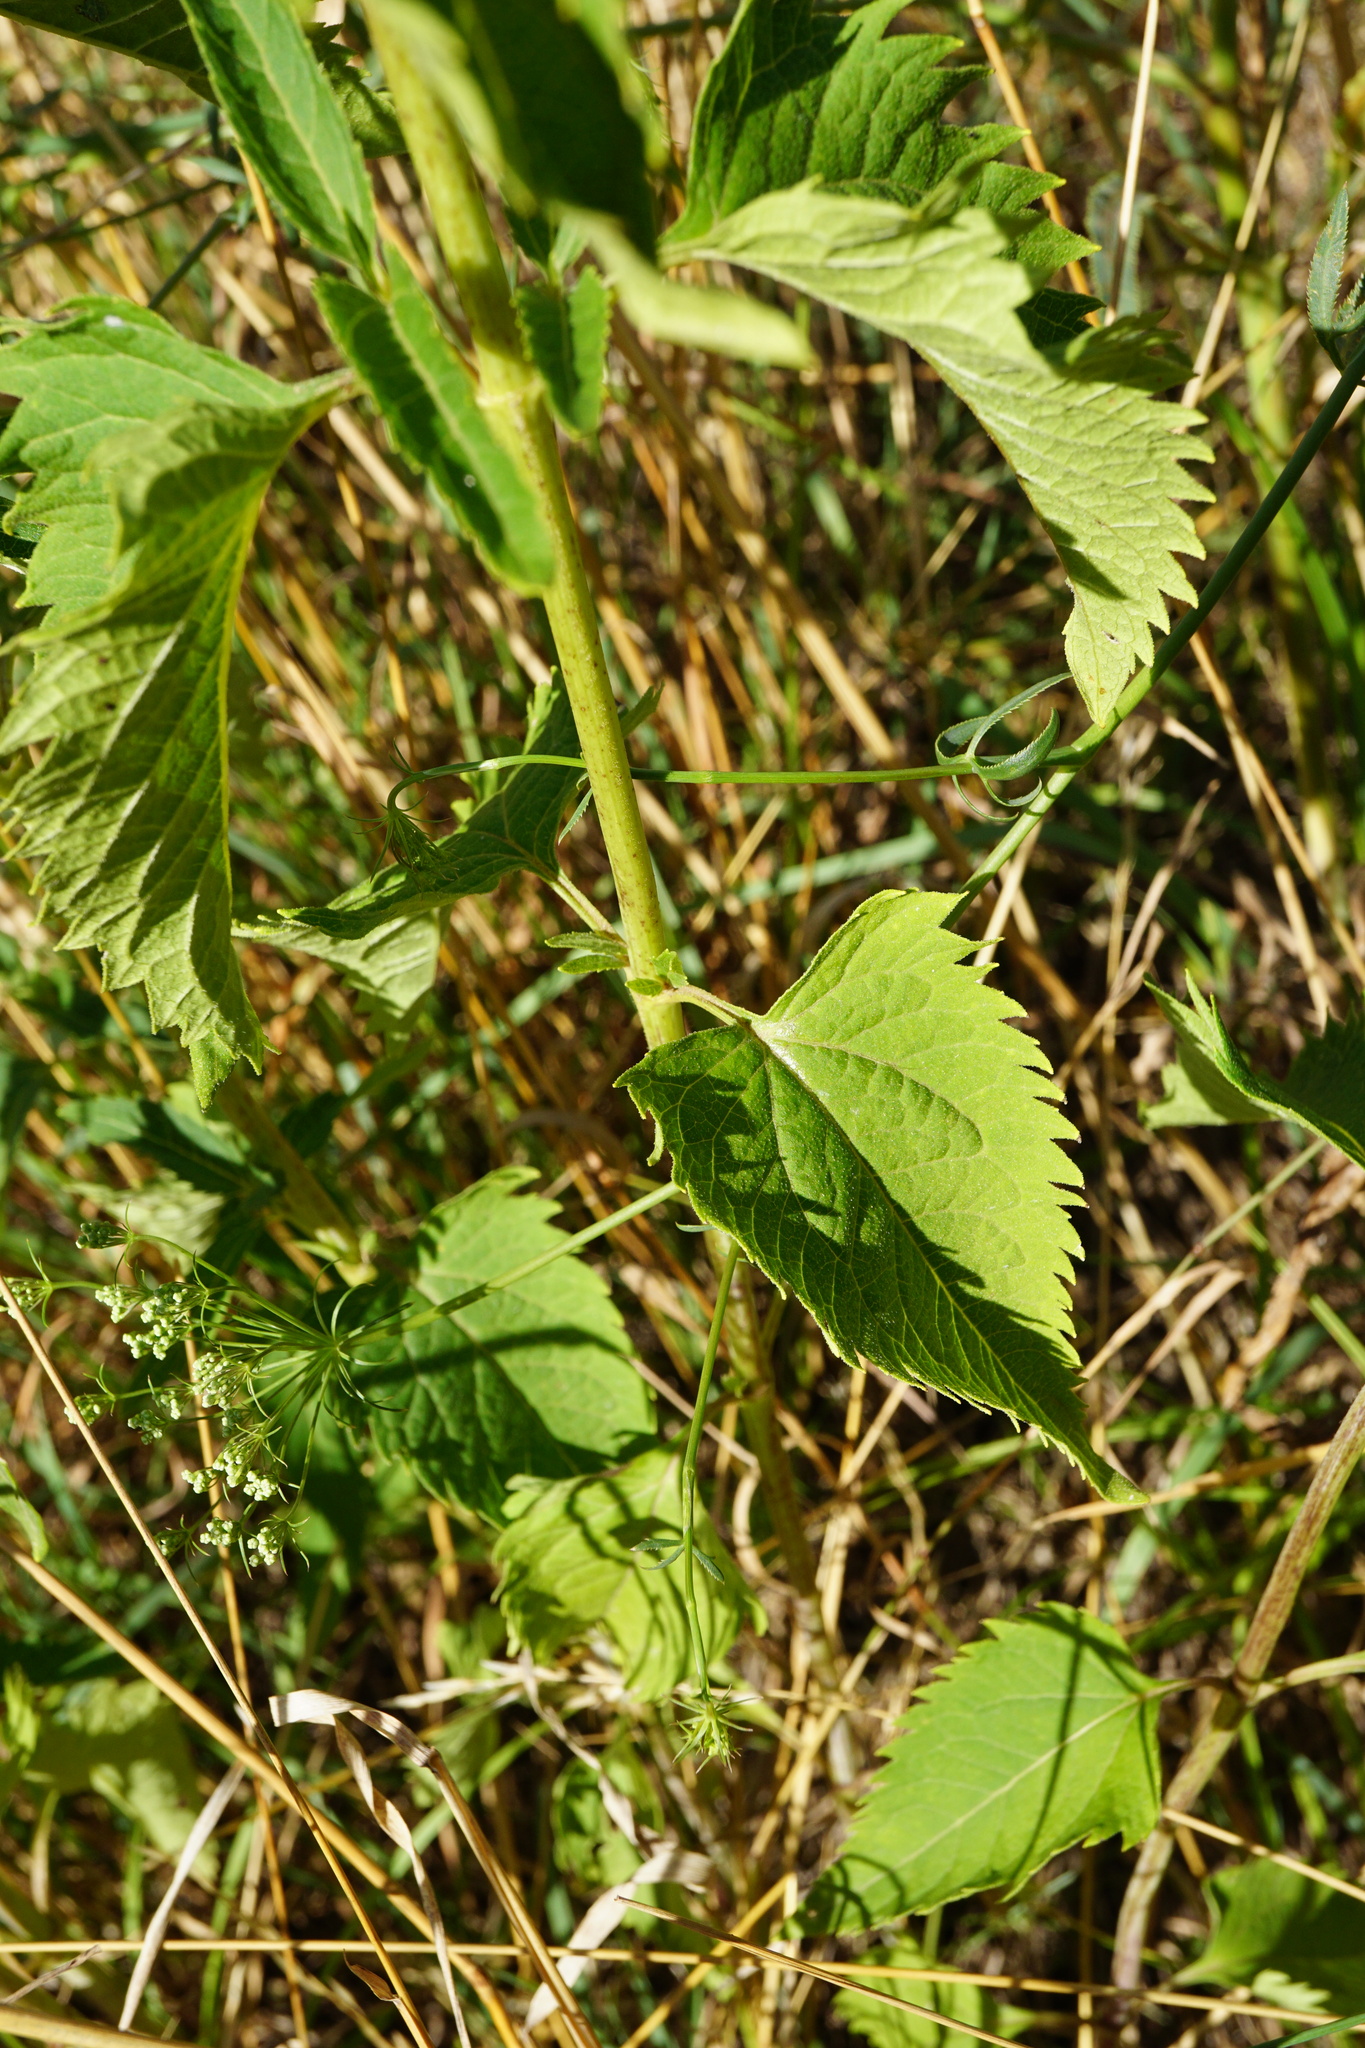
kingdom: Plantae
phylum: Tracheophyta
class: Magnoliopsida
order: Asterales
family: Asteraceae
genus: Heliopsis
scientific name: Heliopsis helianthoides
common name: False sunflower
